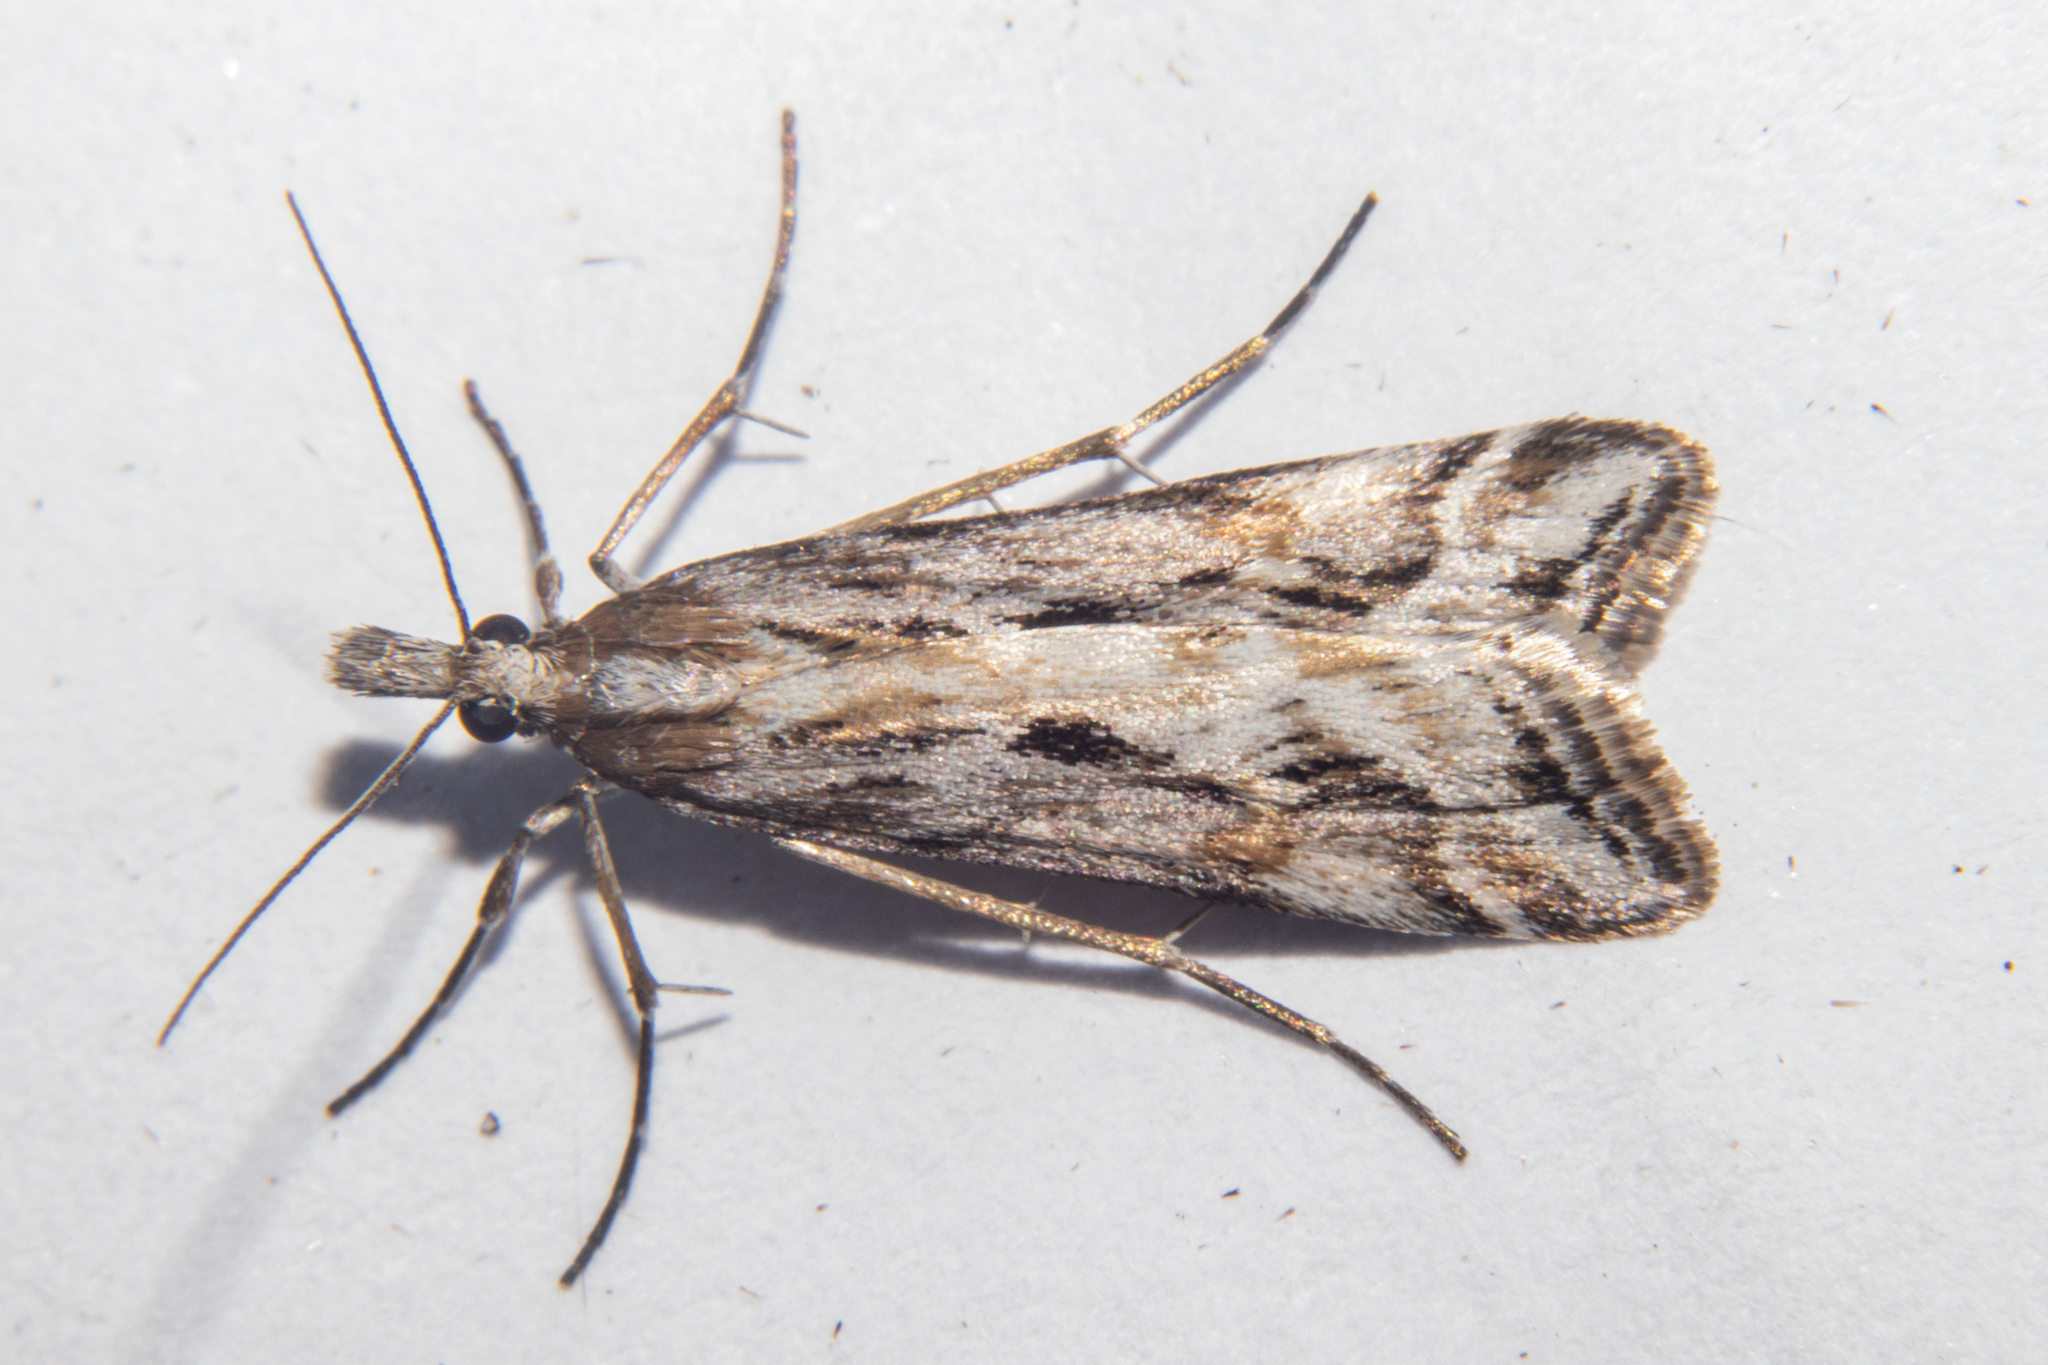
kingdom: Animalia
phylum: Arthropoda
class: Insecta
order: Lepidoptera
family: Crambidae
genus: Scoparia
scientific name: Scoparia exilis
